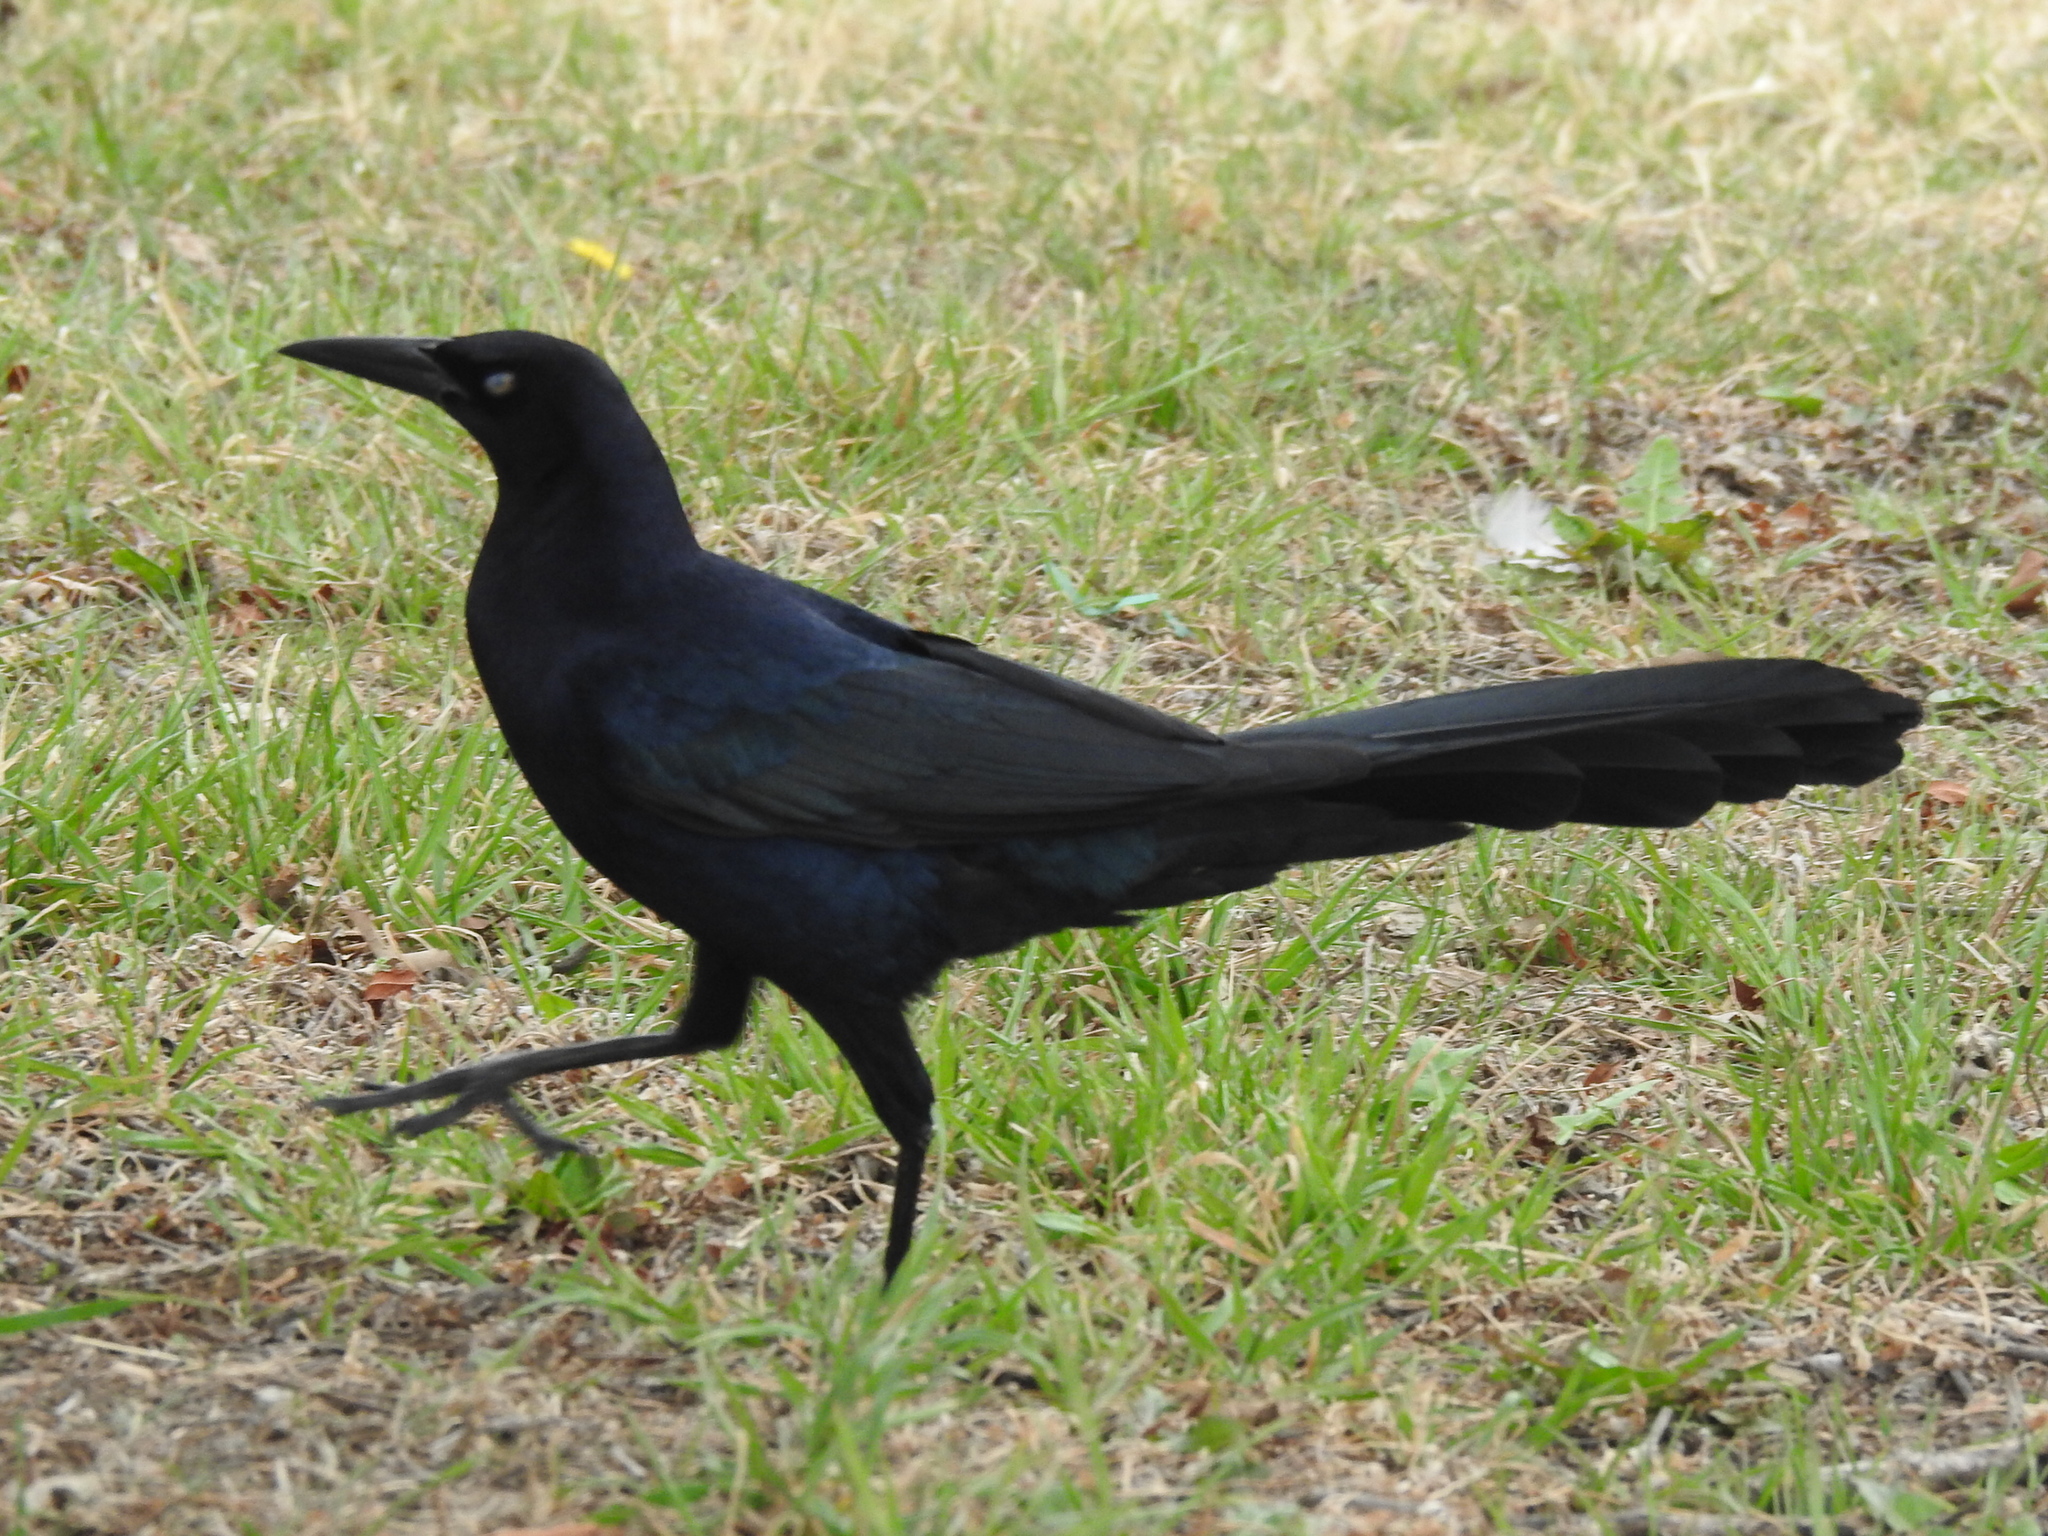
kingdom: Animalia
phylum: Chordata
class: Aves
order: Passeriformes
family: Icteridae
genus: Quiscalus
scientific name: Quiscalus mexicanus
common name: Great-tailed grackle
